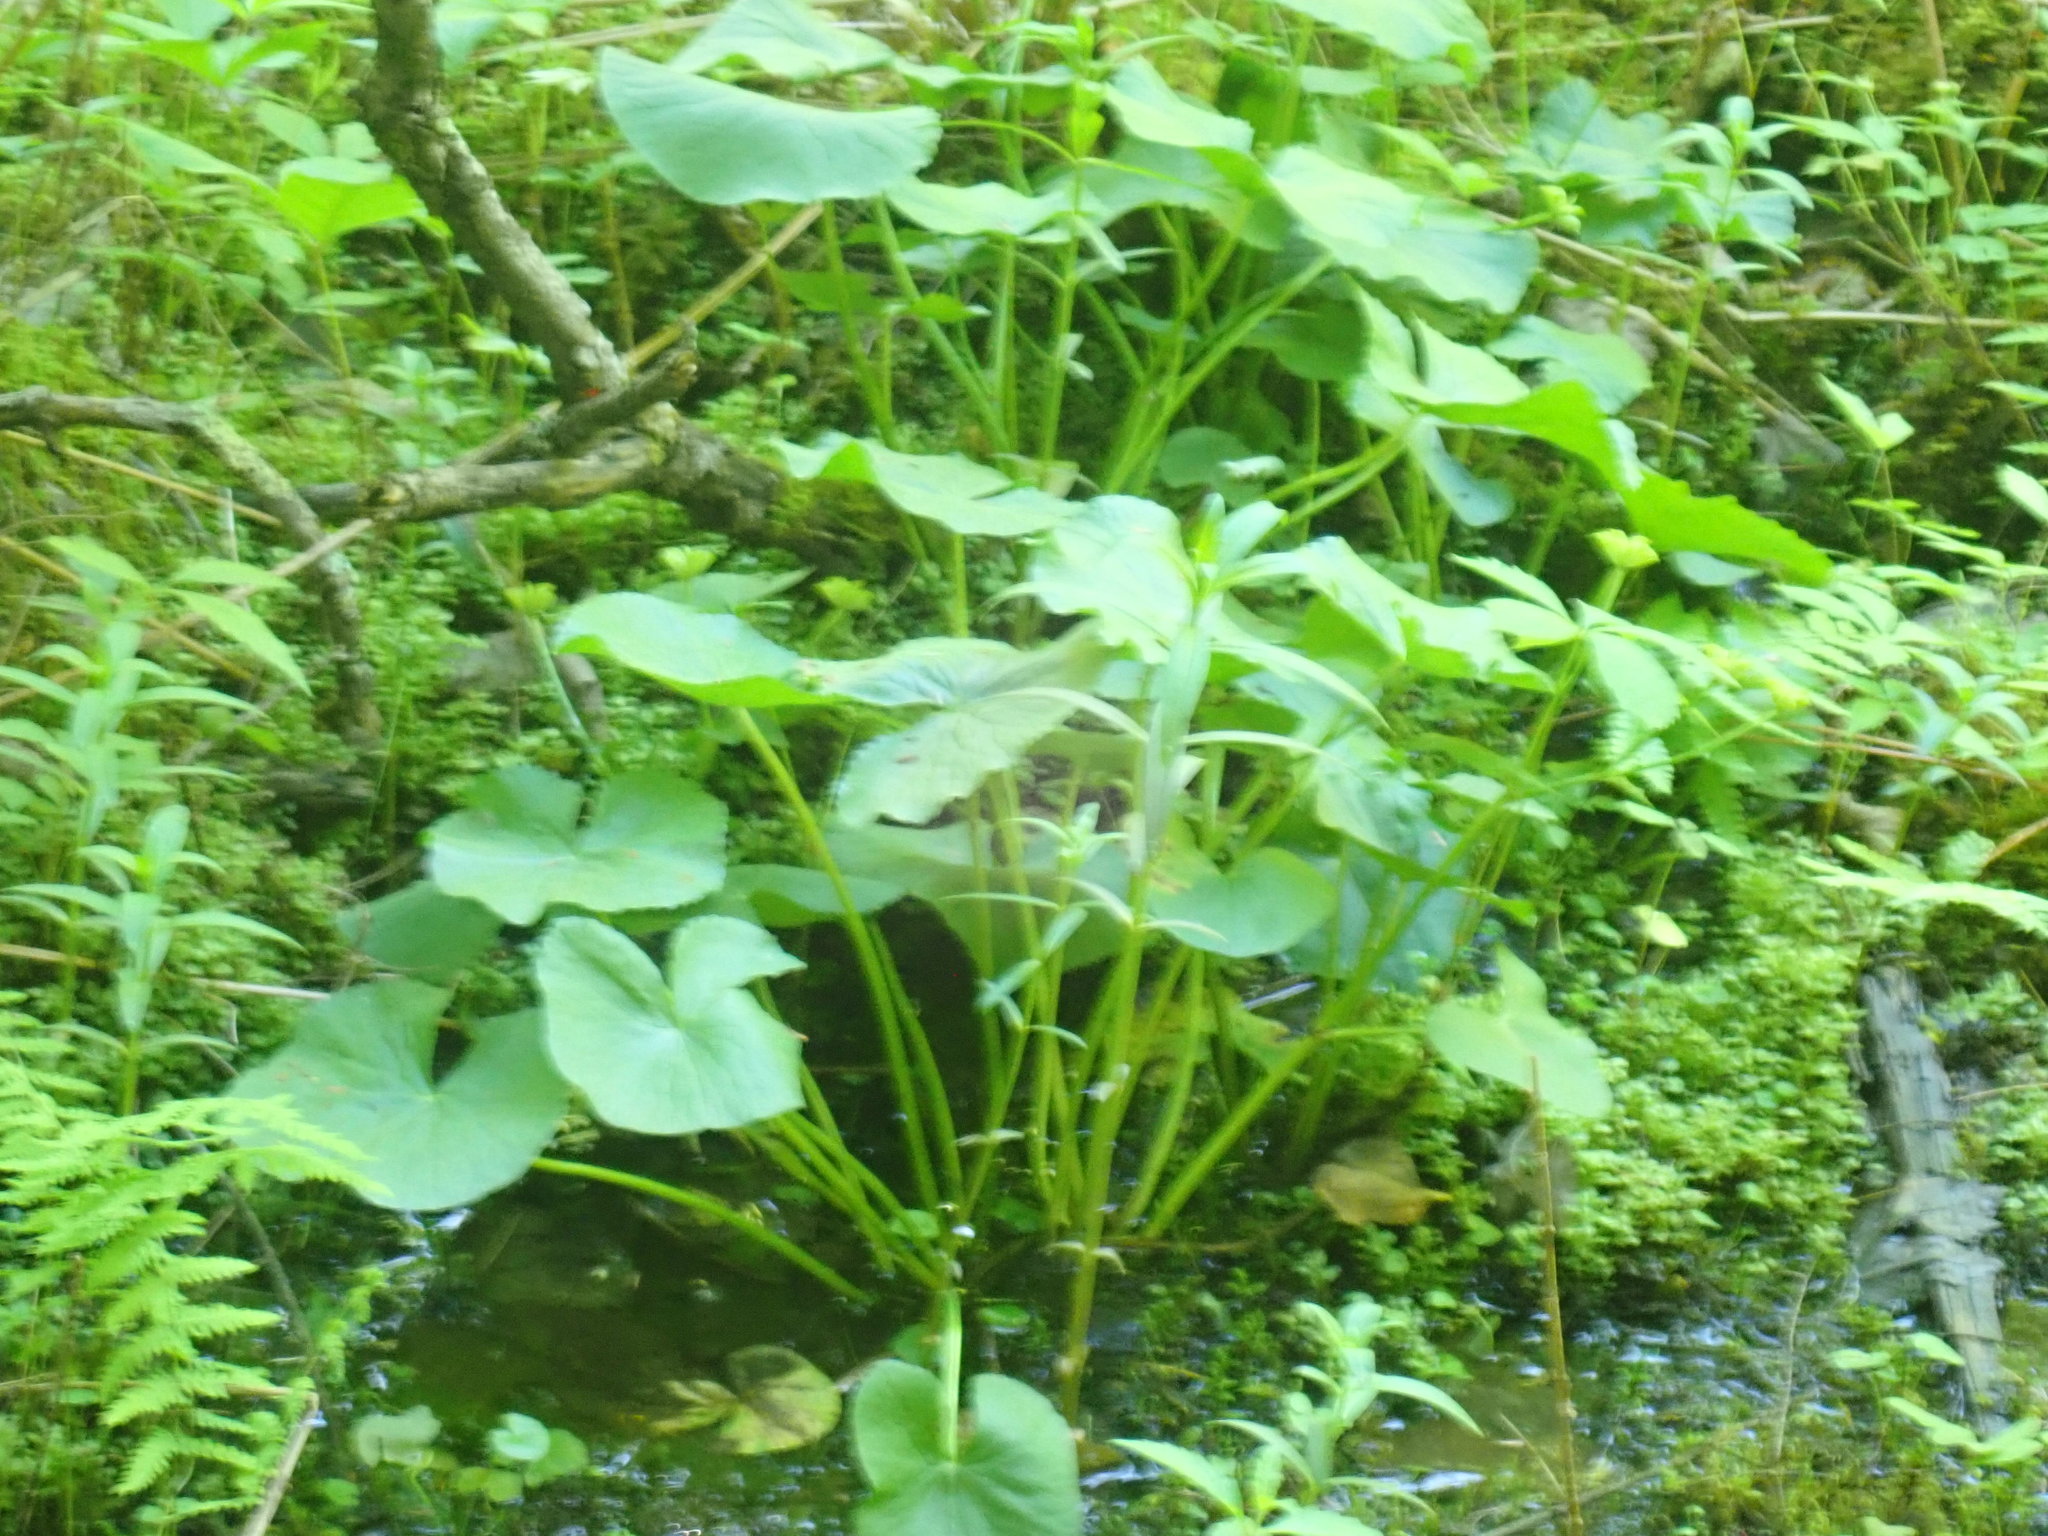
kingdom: Plantae
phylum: Tracheophyta
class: Magnoliopsida
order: Ranunculales
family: Ranunculaceae
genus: Caltha
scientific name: Caltha palustris
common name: Marsh marigold
